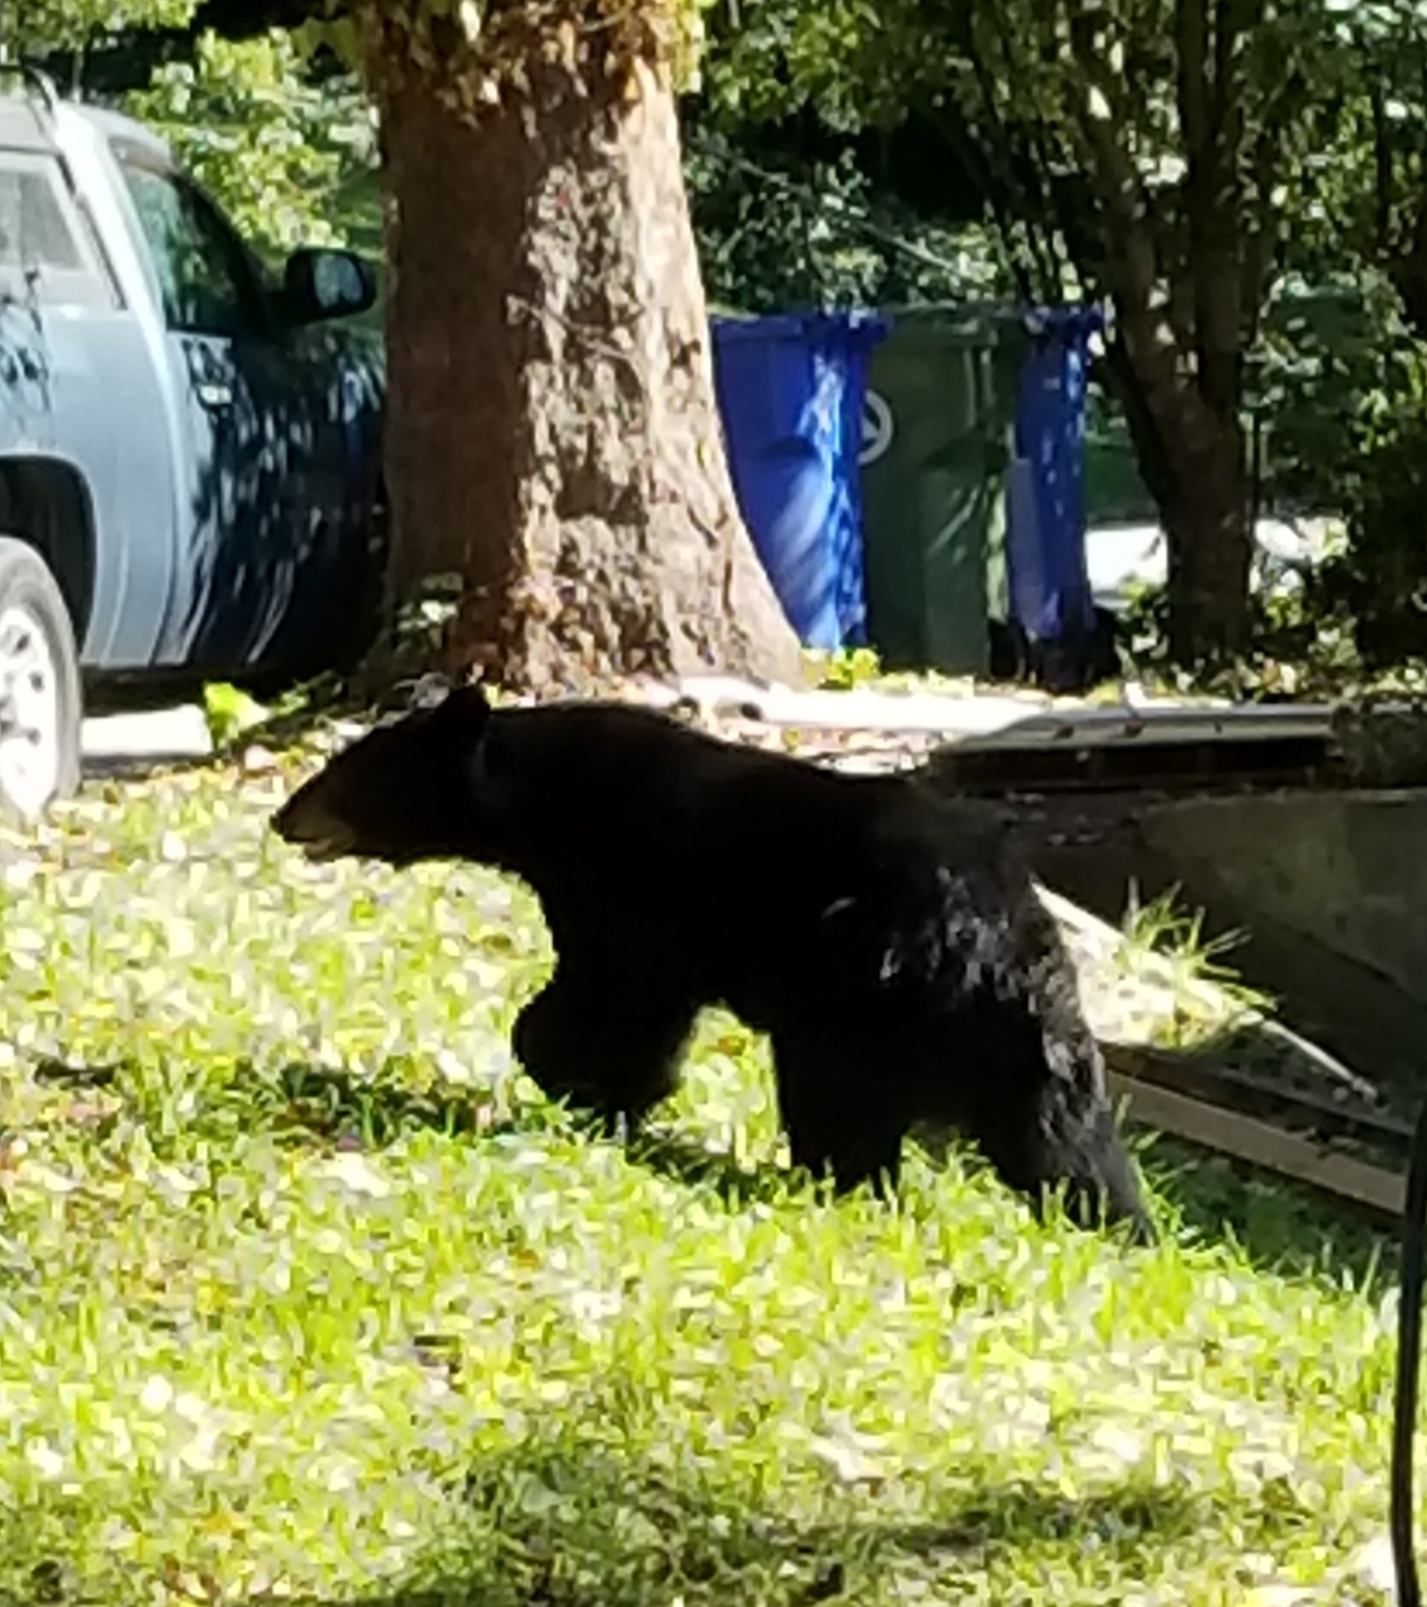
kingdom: Animalia
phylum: Chordata
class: Mammalia
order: Carnivora
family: Ursidae
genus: Ursus
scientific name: Ursus americanus
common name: American black bear
